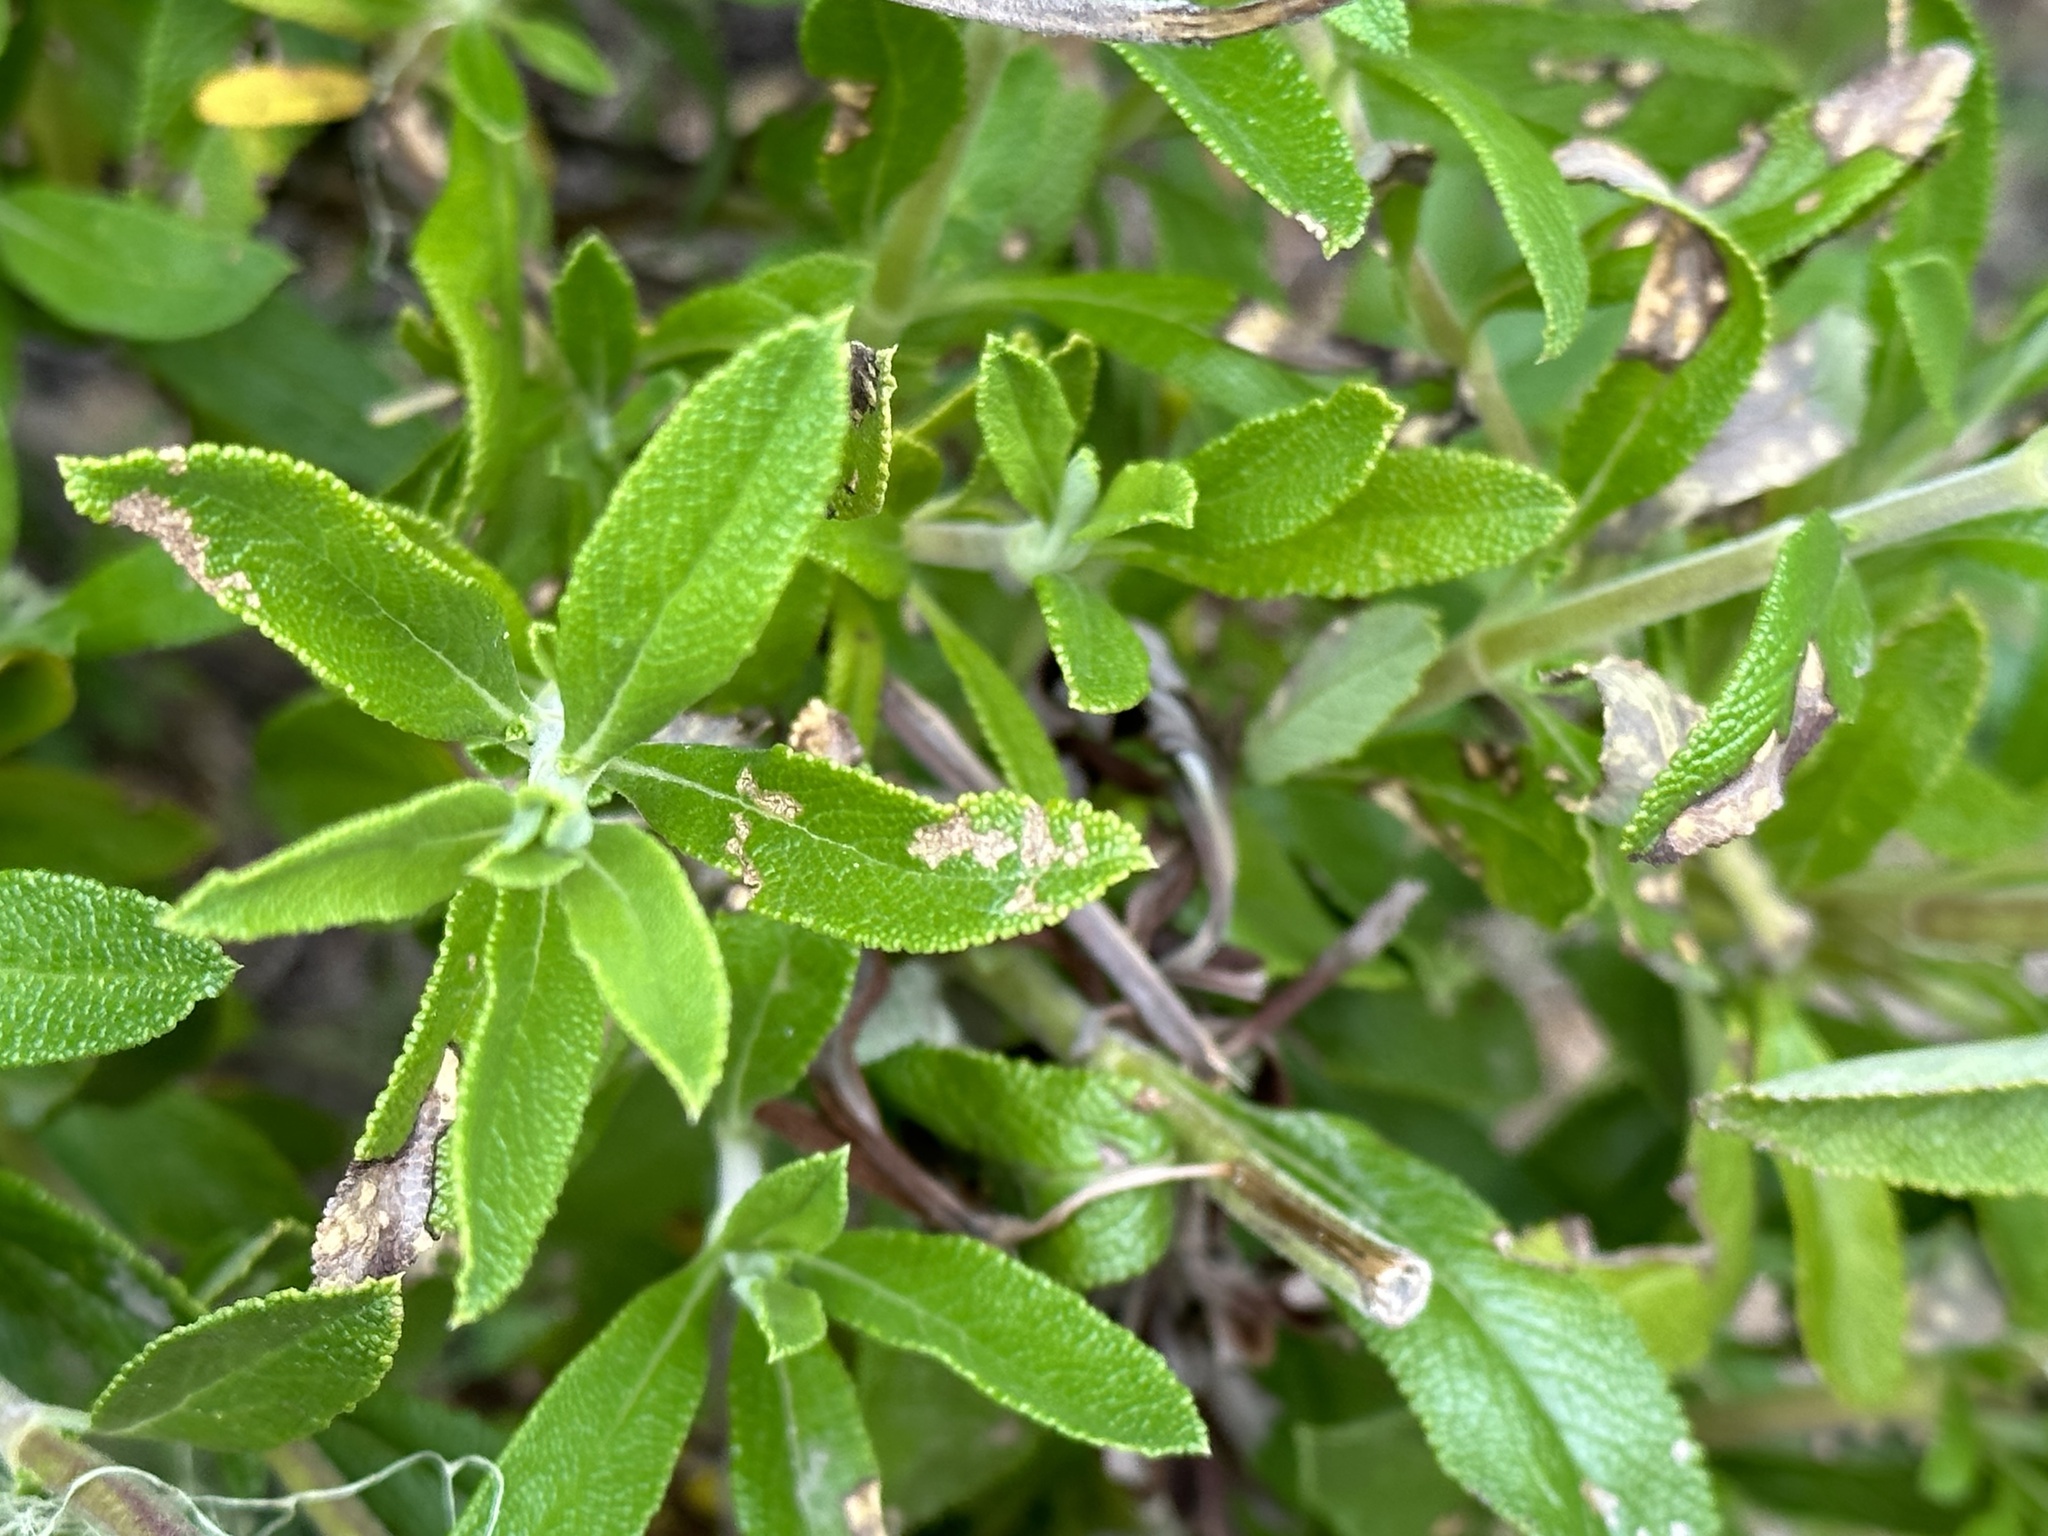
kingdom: Plantae
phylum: Tracheophyta
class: Magnoliopsida
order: Lamiales
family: Lamiaceae
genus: Salvia
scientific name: Salvia mellifera
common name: Black sage
